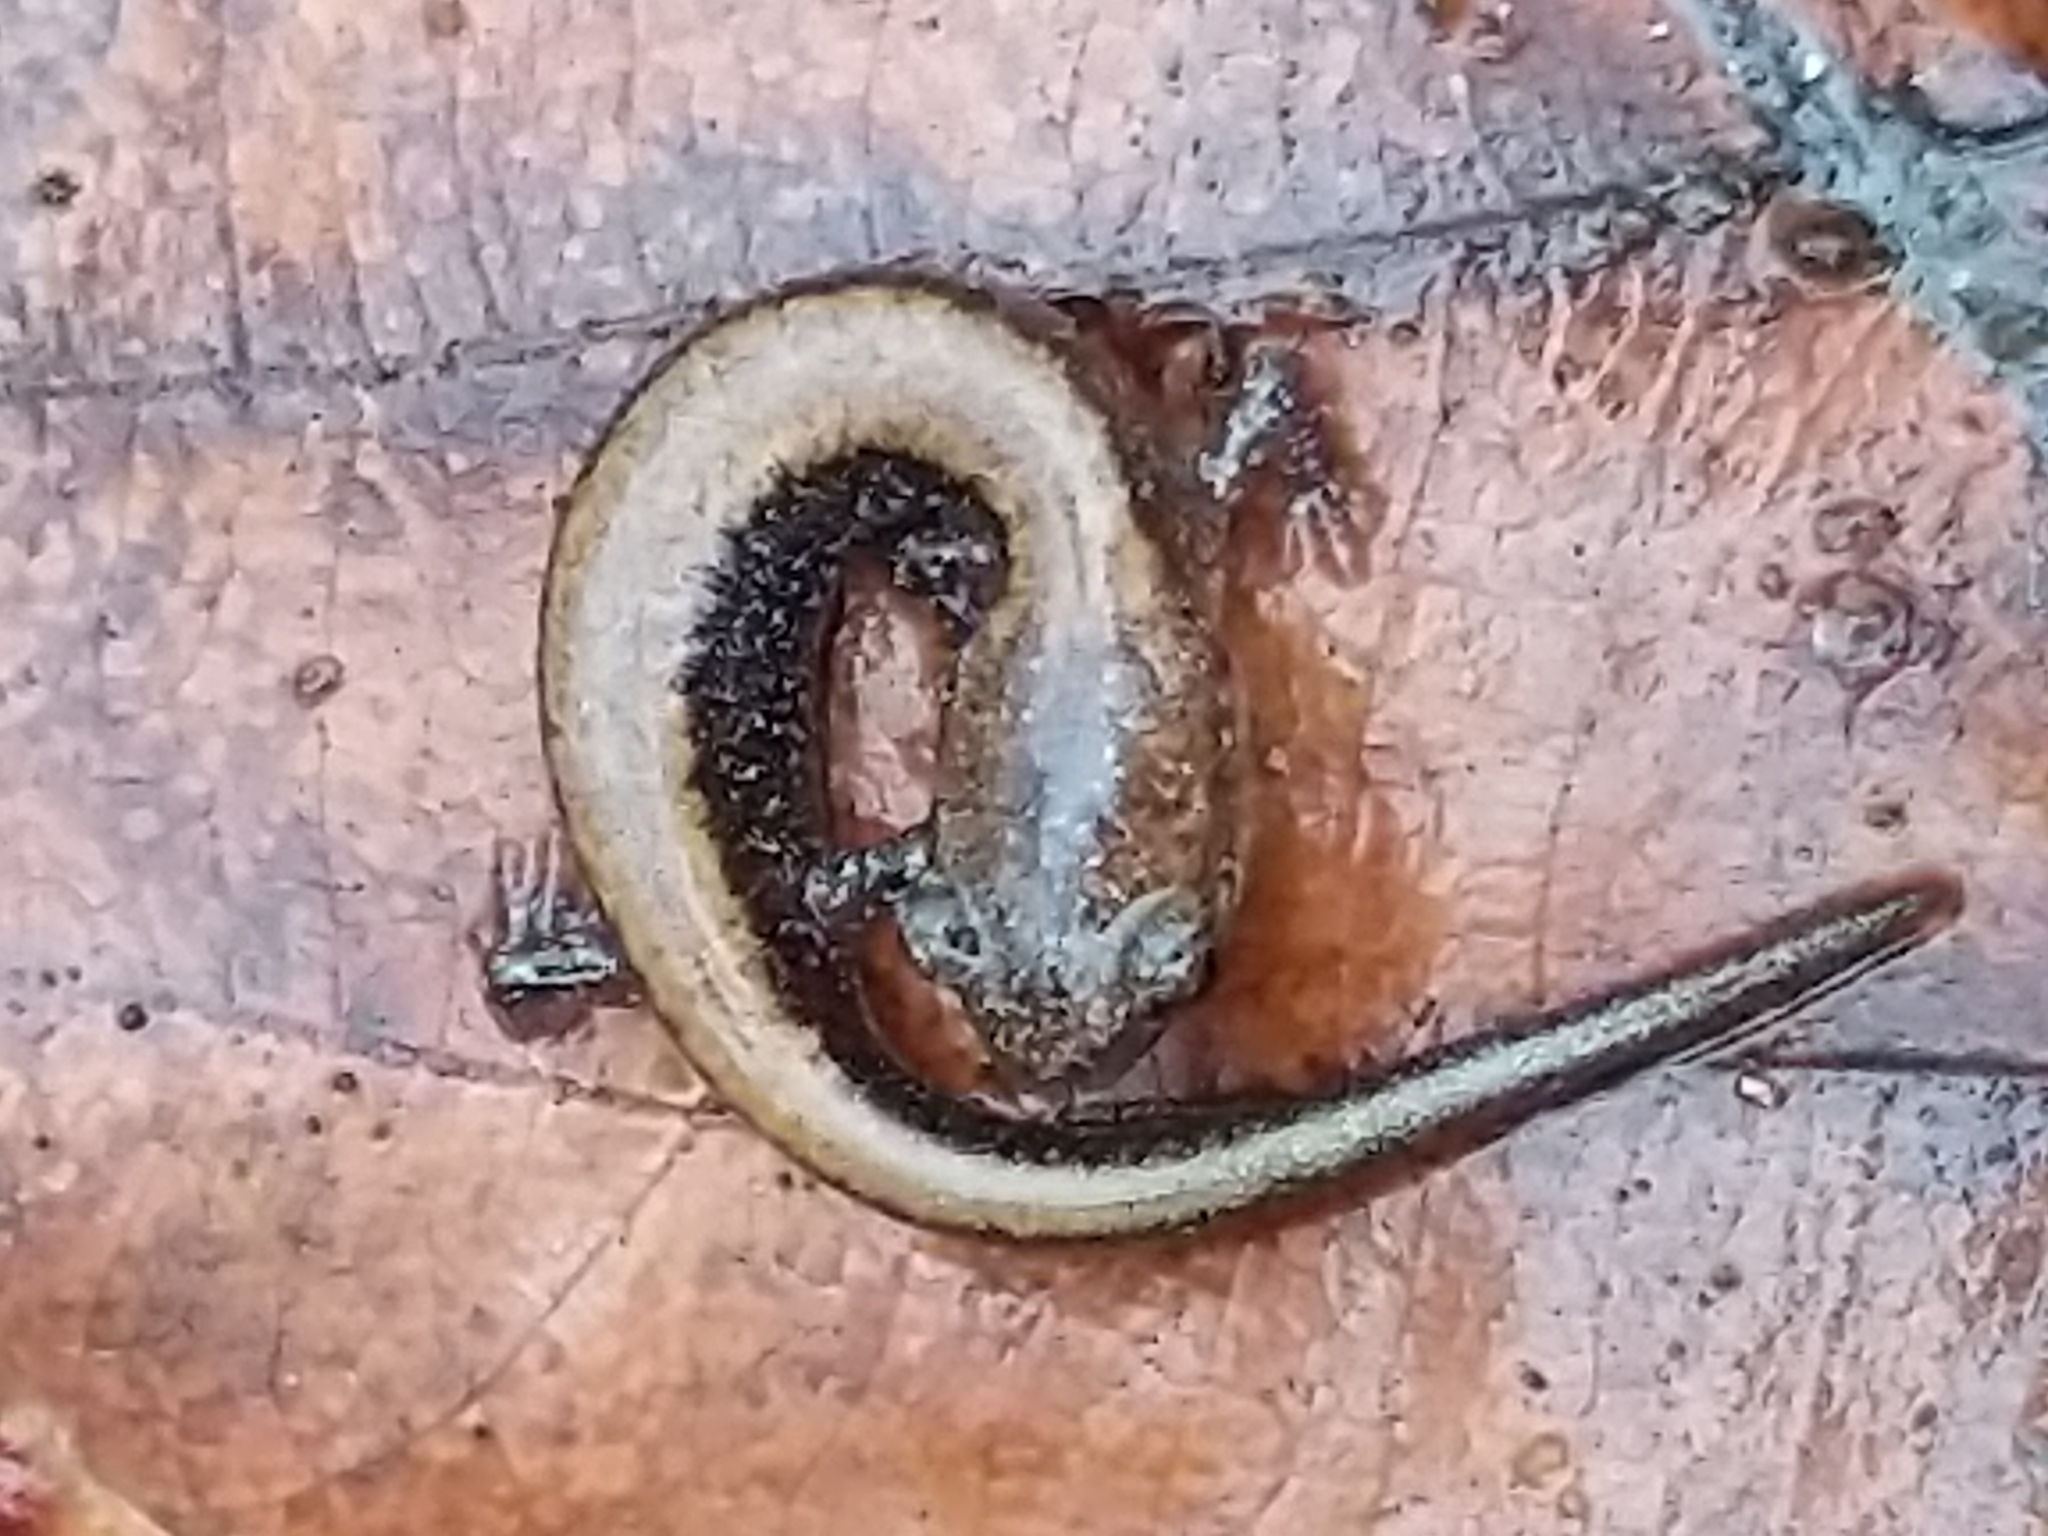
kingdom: Animalia
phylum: Chordata
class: Amphibia
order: Caudata
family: Plethodontidae
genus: Plethodon
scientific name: Plethodon cinereus
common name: Redback salamander
